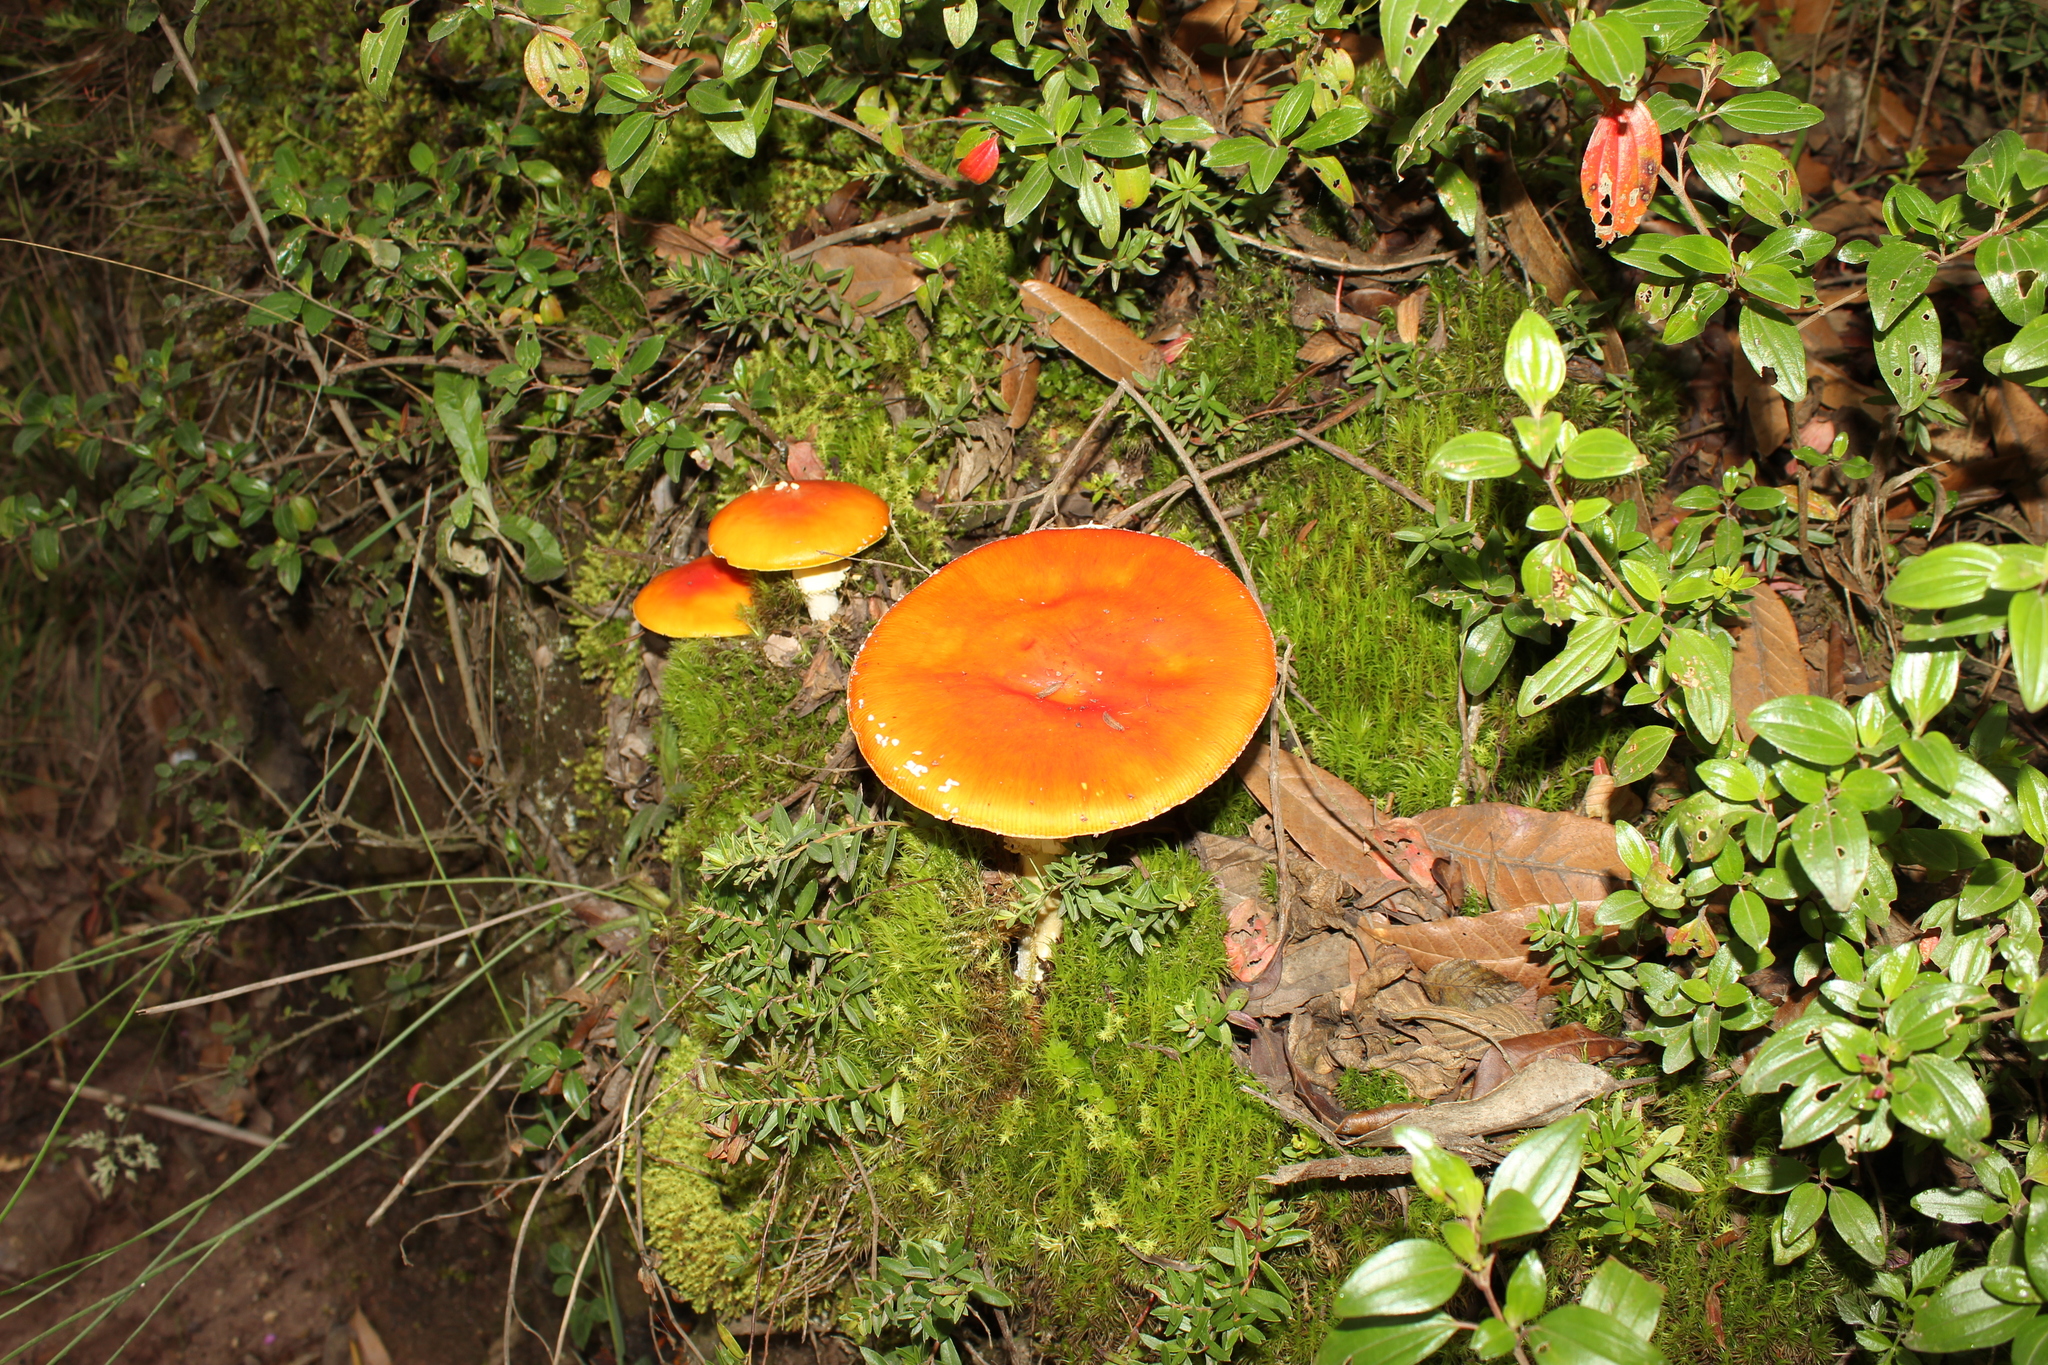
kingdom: Fungi
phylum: Basidiomycota
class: Agaricomycetes
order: Agaricales
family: Amanitaceae
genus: Amanita
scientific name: Amanita muscaria
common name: Fly agaric
